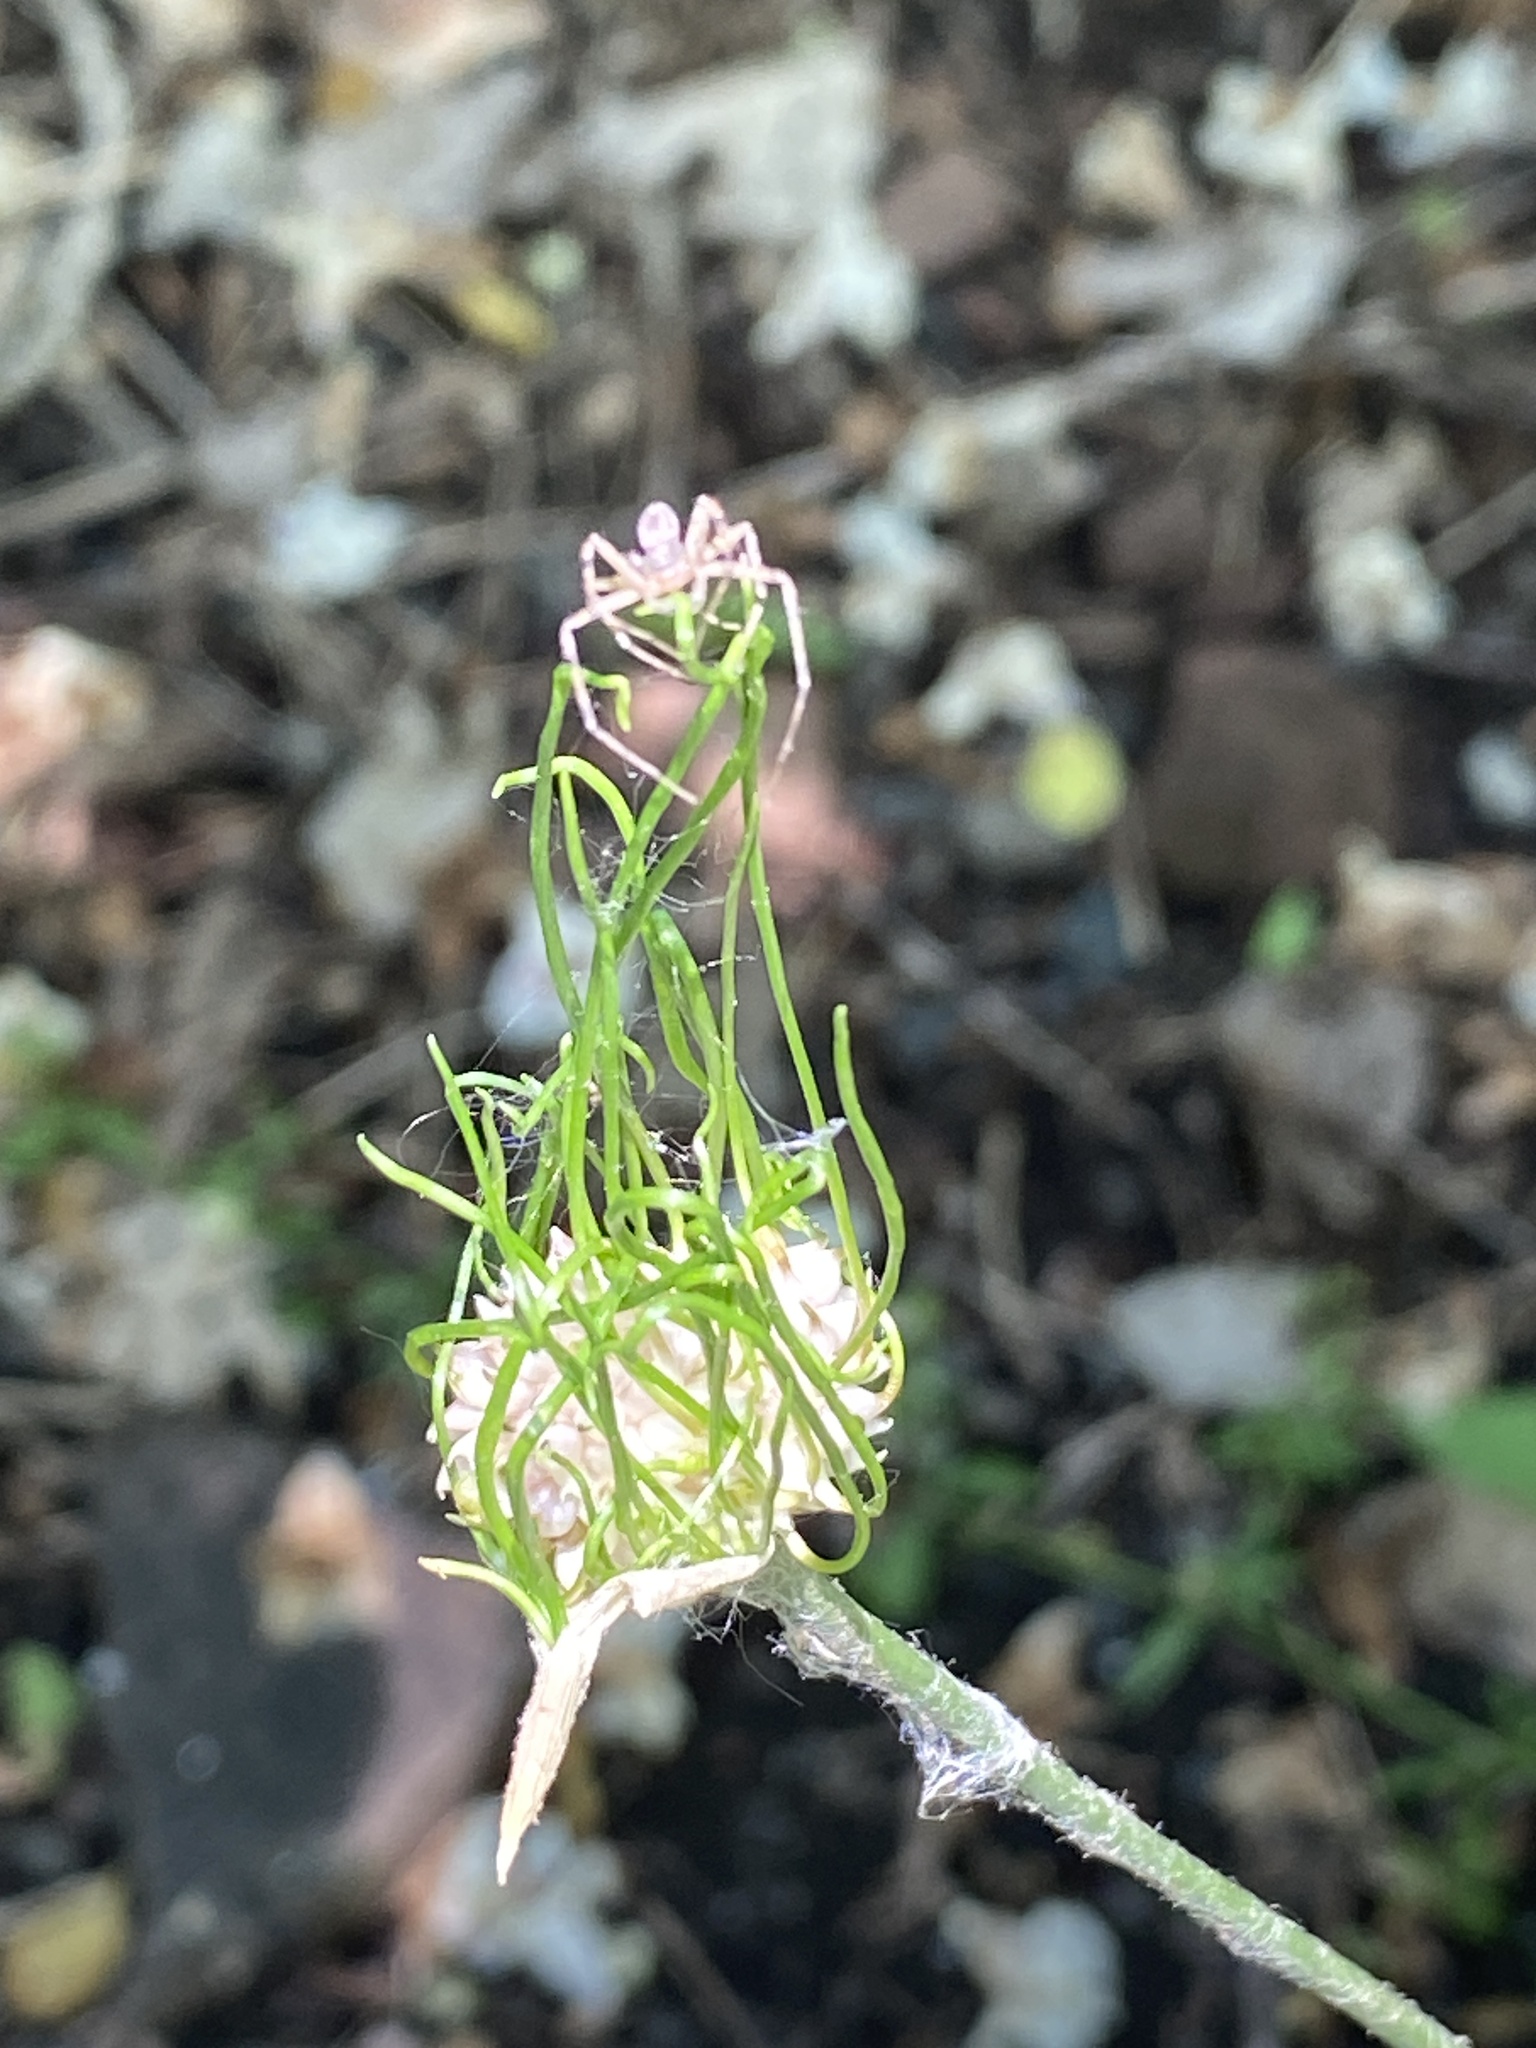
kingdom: Plantae
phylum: Tracheophyta
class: Liliopsida
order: Asparagales
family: Amaryllidaceae
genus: Allium
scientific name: Allium vineale
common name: Crow garlic
